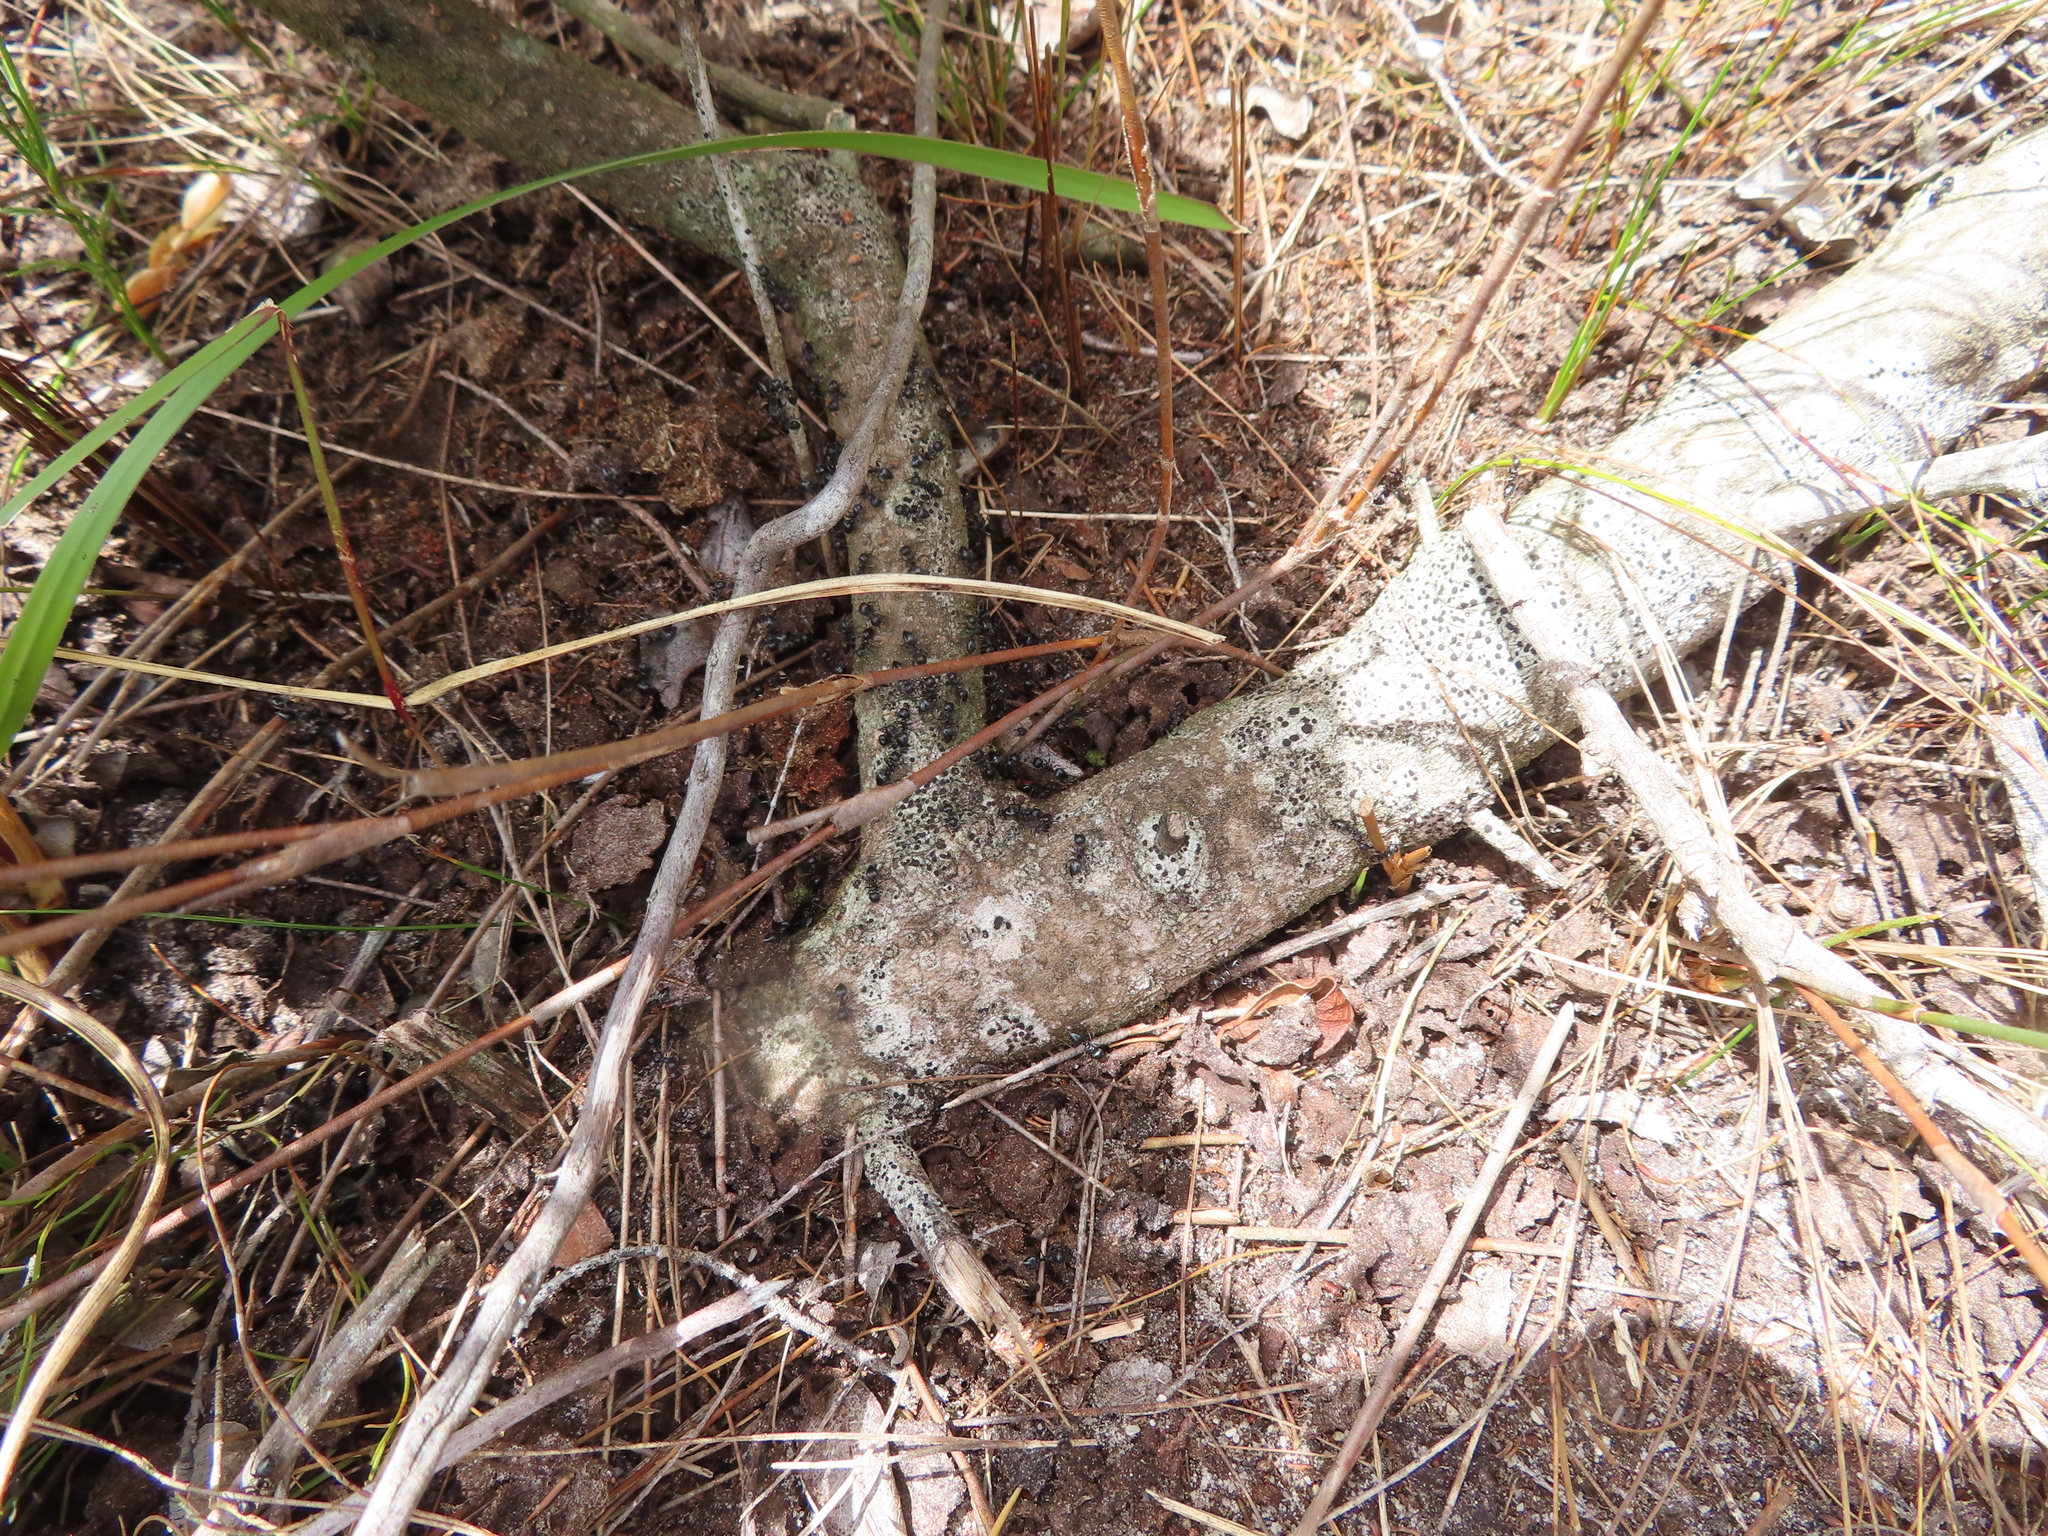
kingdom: Animalia
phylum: Arthropoda
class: Insecta
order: Hymenoptera
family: Formicidae
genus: Crematogaster
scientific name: Crematogaster peringueyi
